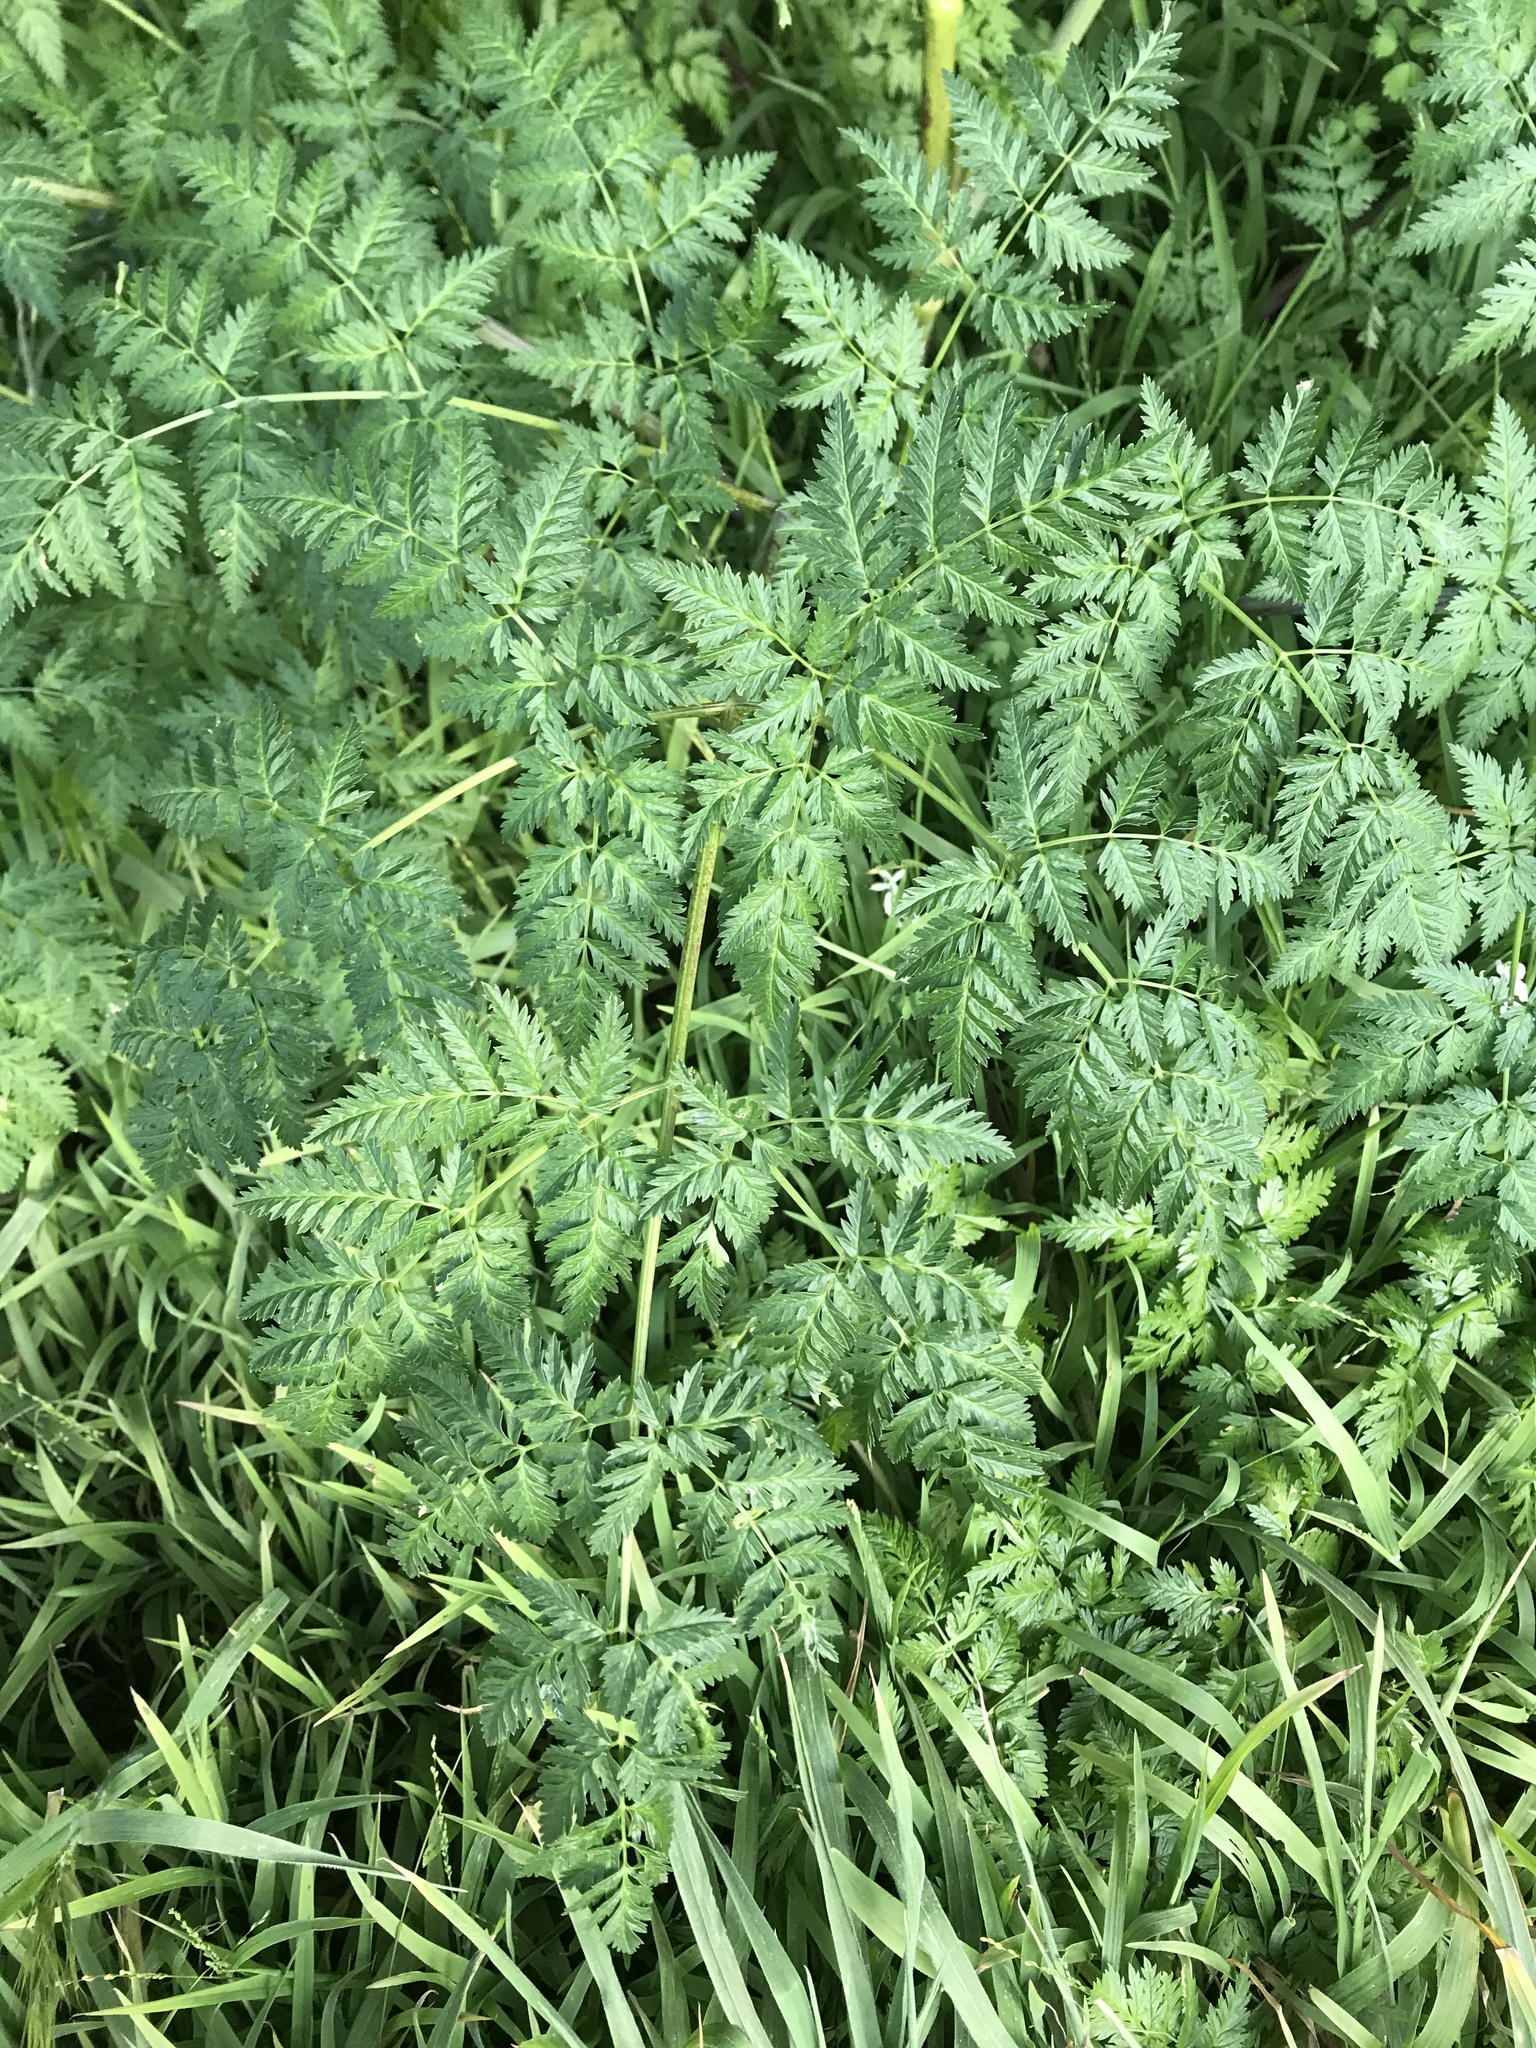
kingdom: Plantae
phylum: Tracheophyta
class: Magnoliopsida
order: Apiales
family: Apiaceae
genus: Conium
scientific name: Conium maculatum
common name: Hemlock
